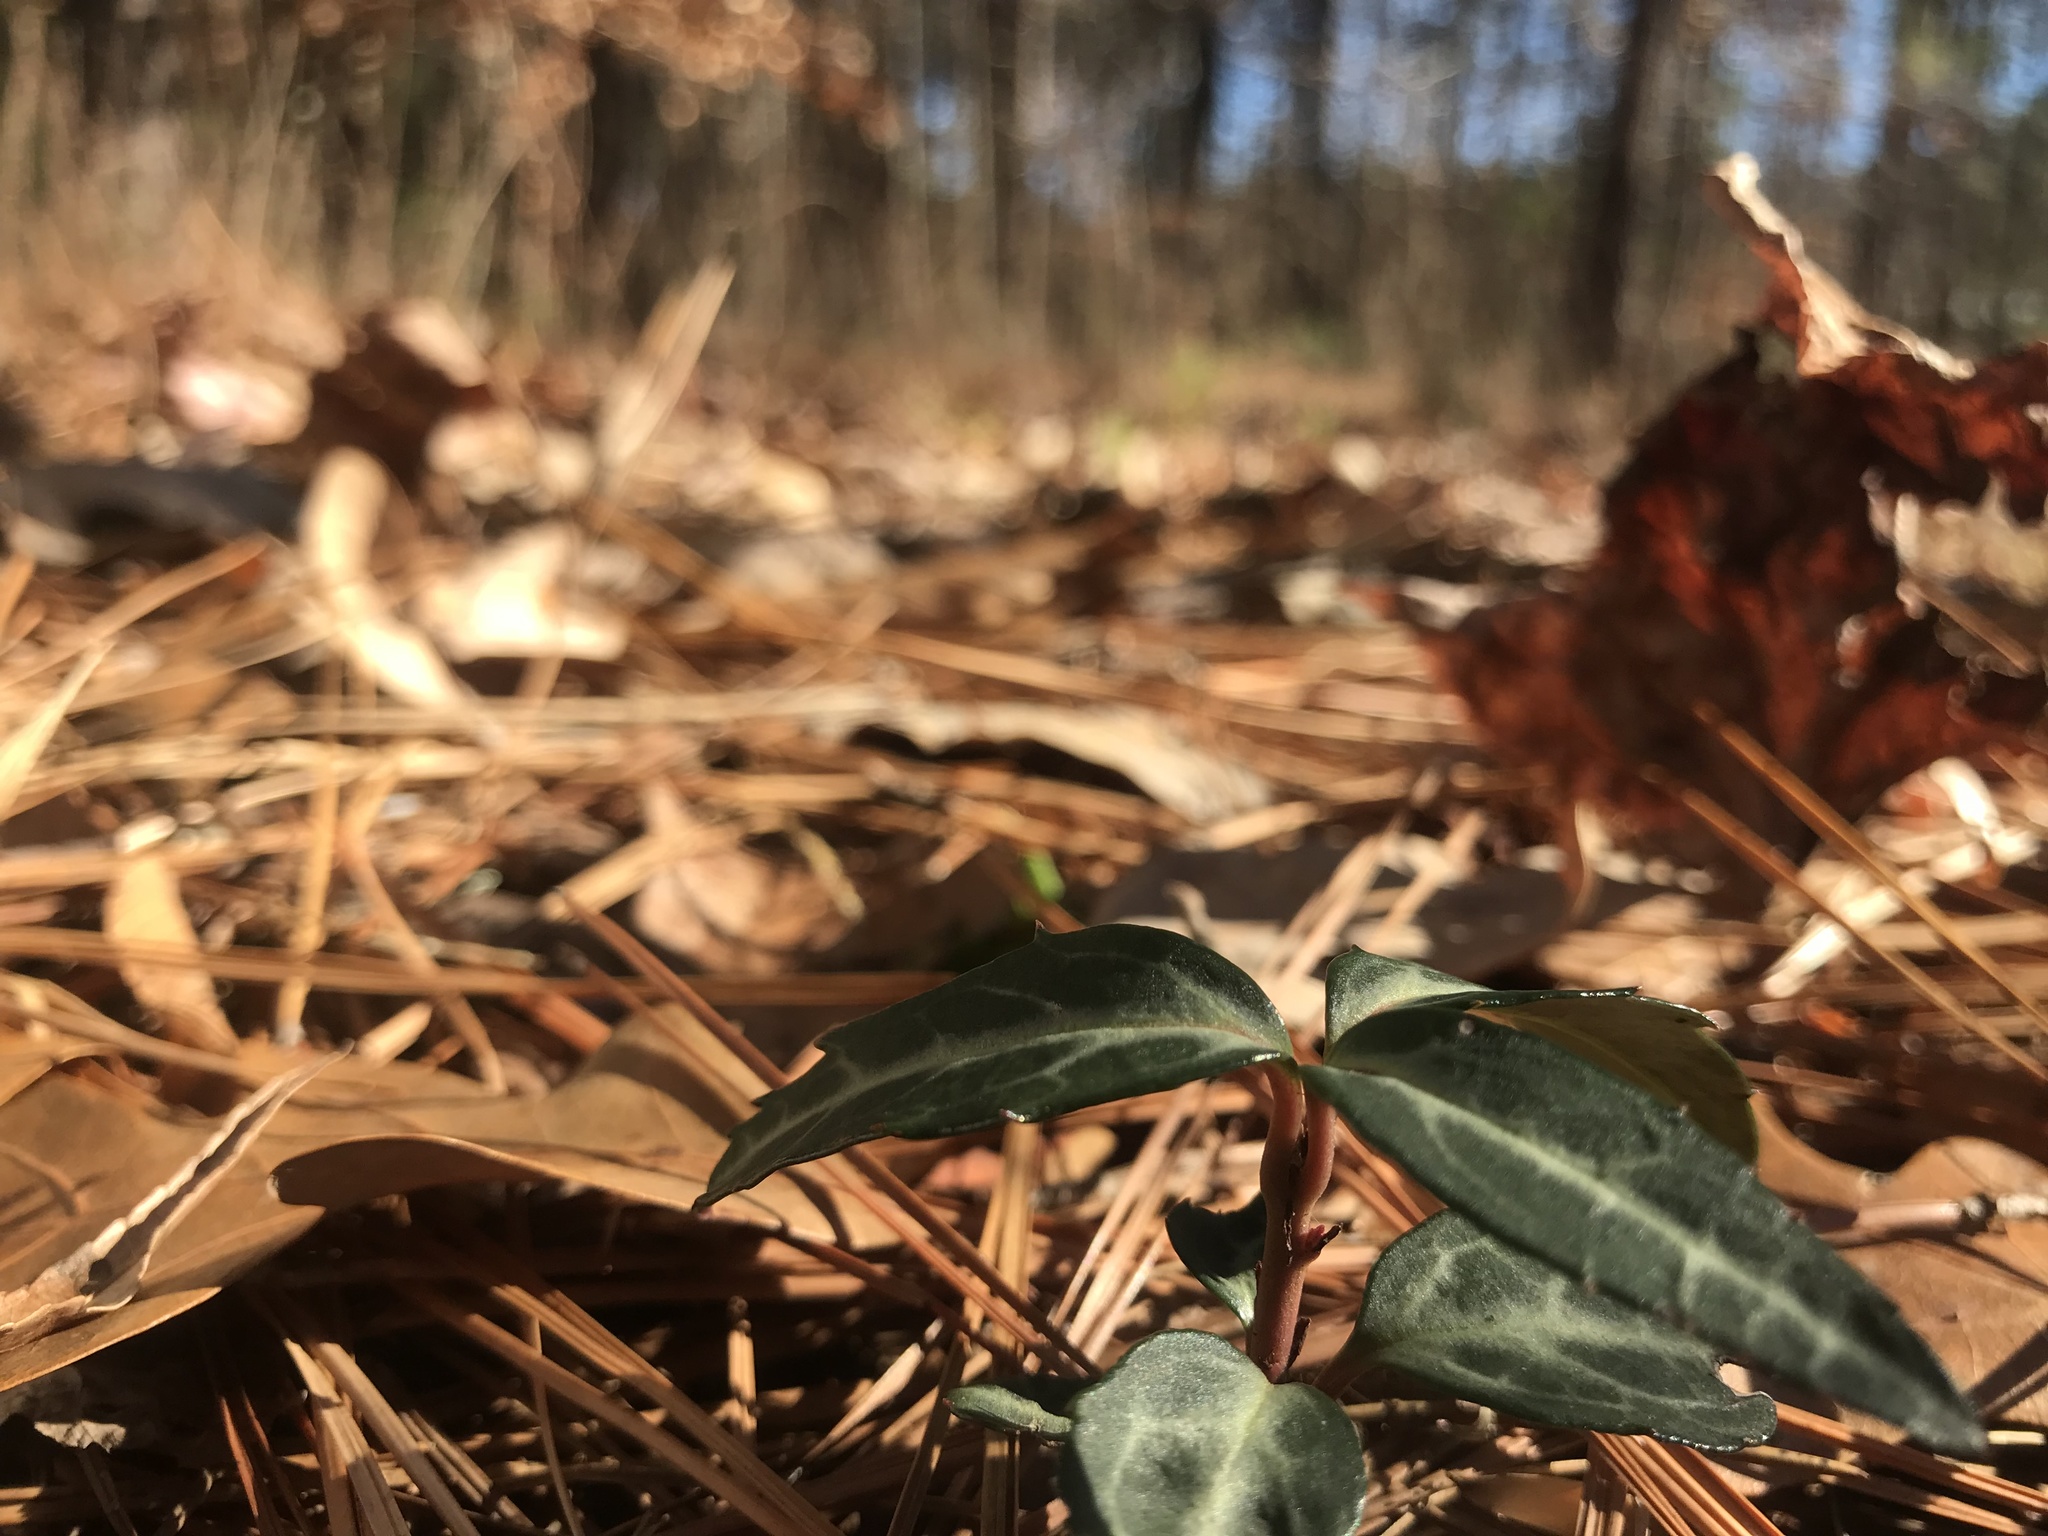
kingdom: Plantae
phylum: Tracheophyta
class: Magnoliopsida
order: Ericales
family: Ericaceae
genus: Chimaphila
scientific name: Chimaphila maculata
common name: Spotted pipsissewa
